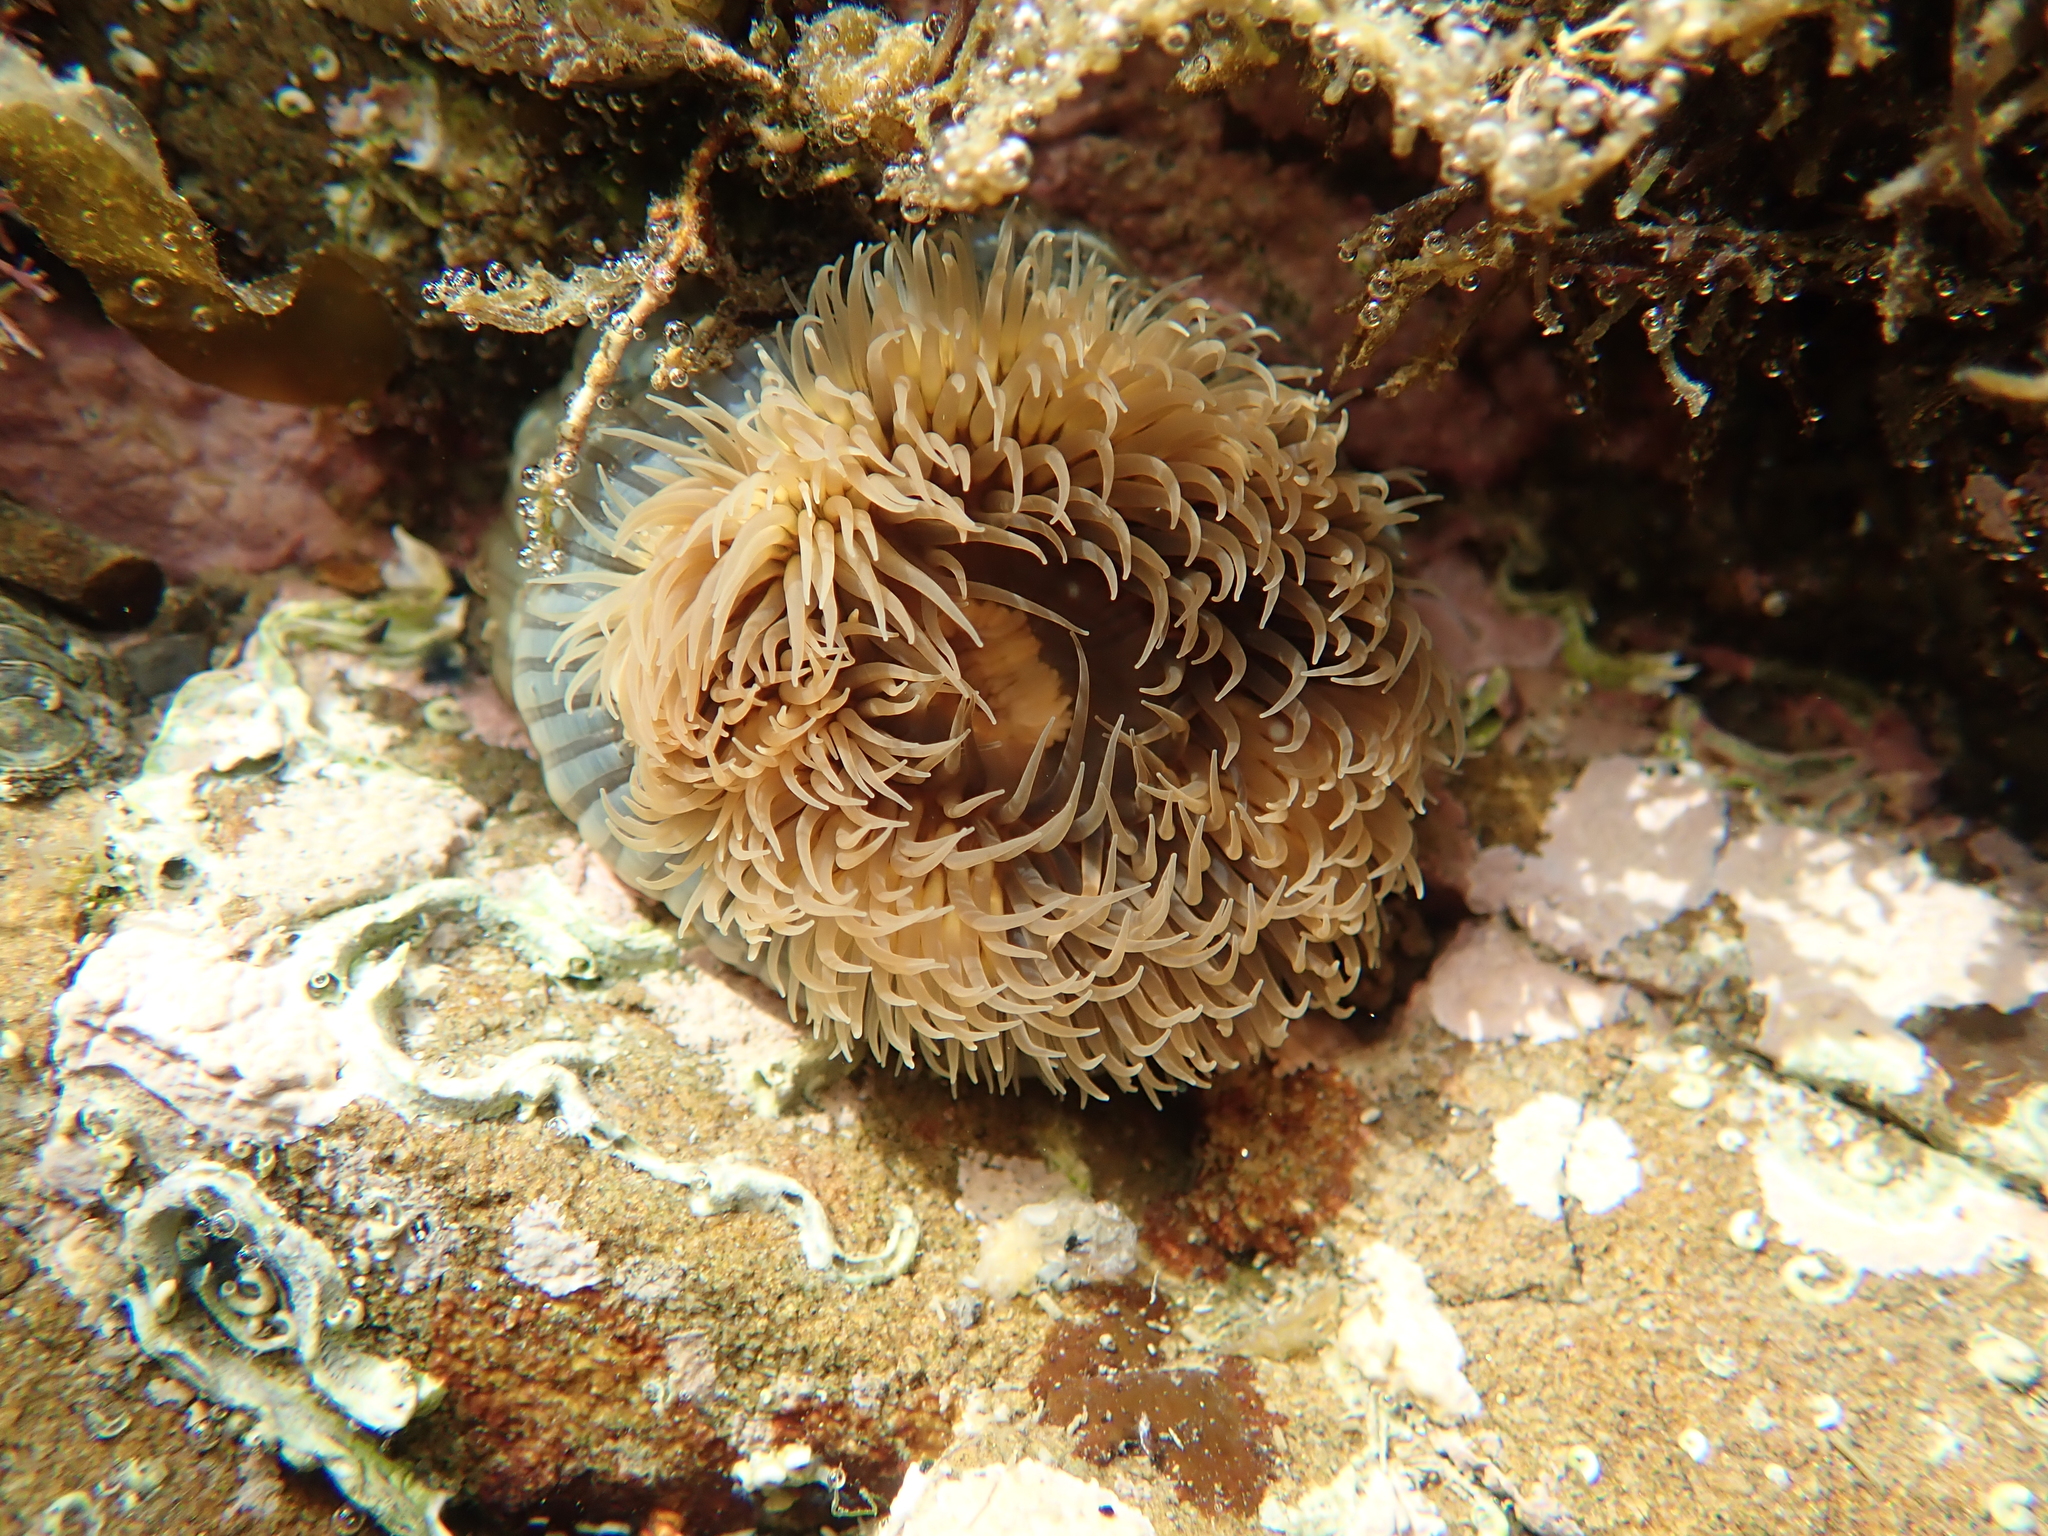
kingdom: Animalia
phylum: Cnidaria
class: Anthozoa
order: Actiniaria
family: Diadumenidae
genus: Diadumene
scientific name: Diadumene neozelanica
